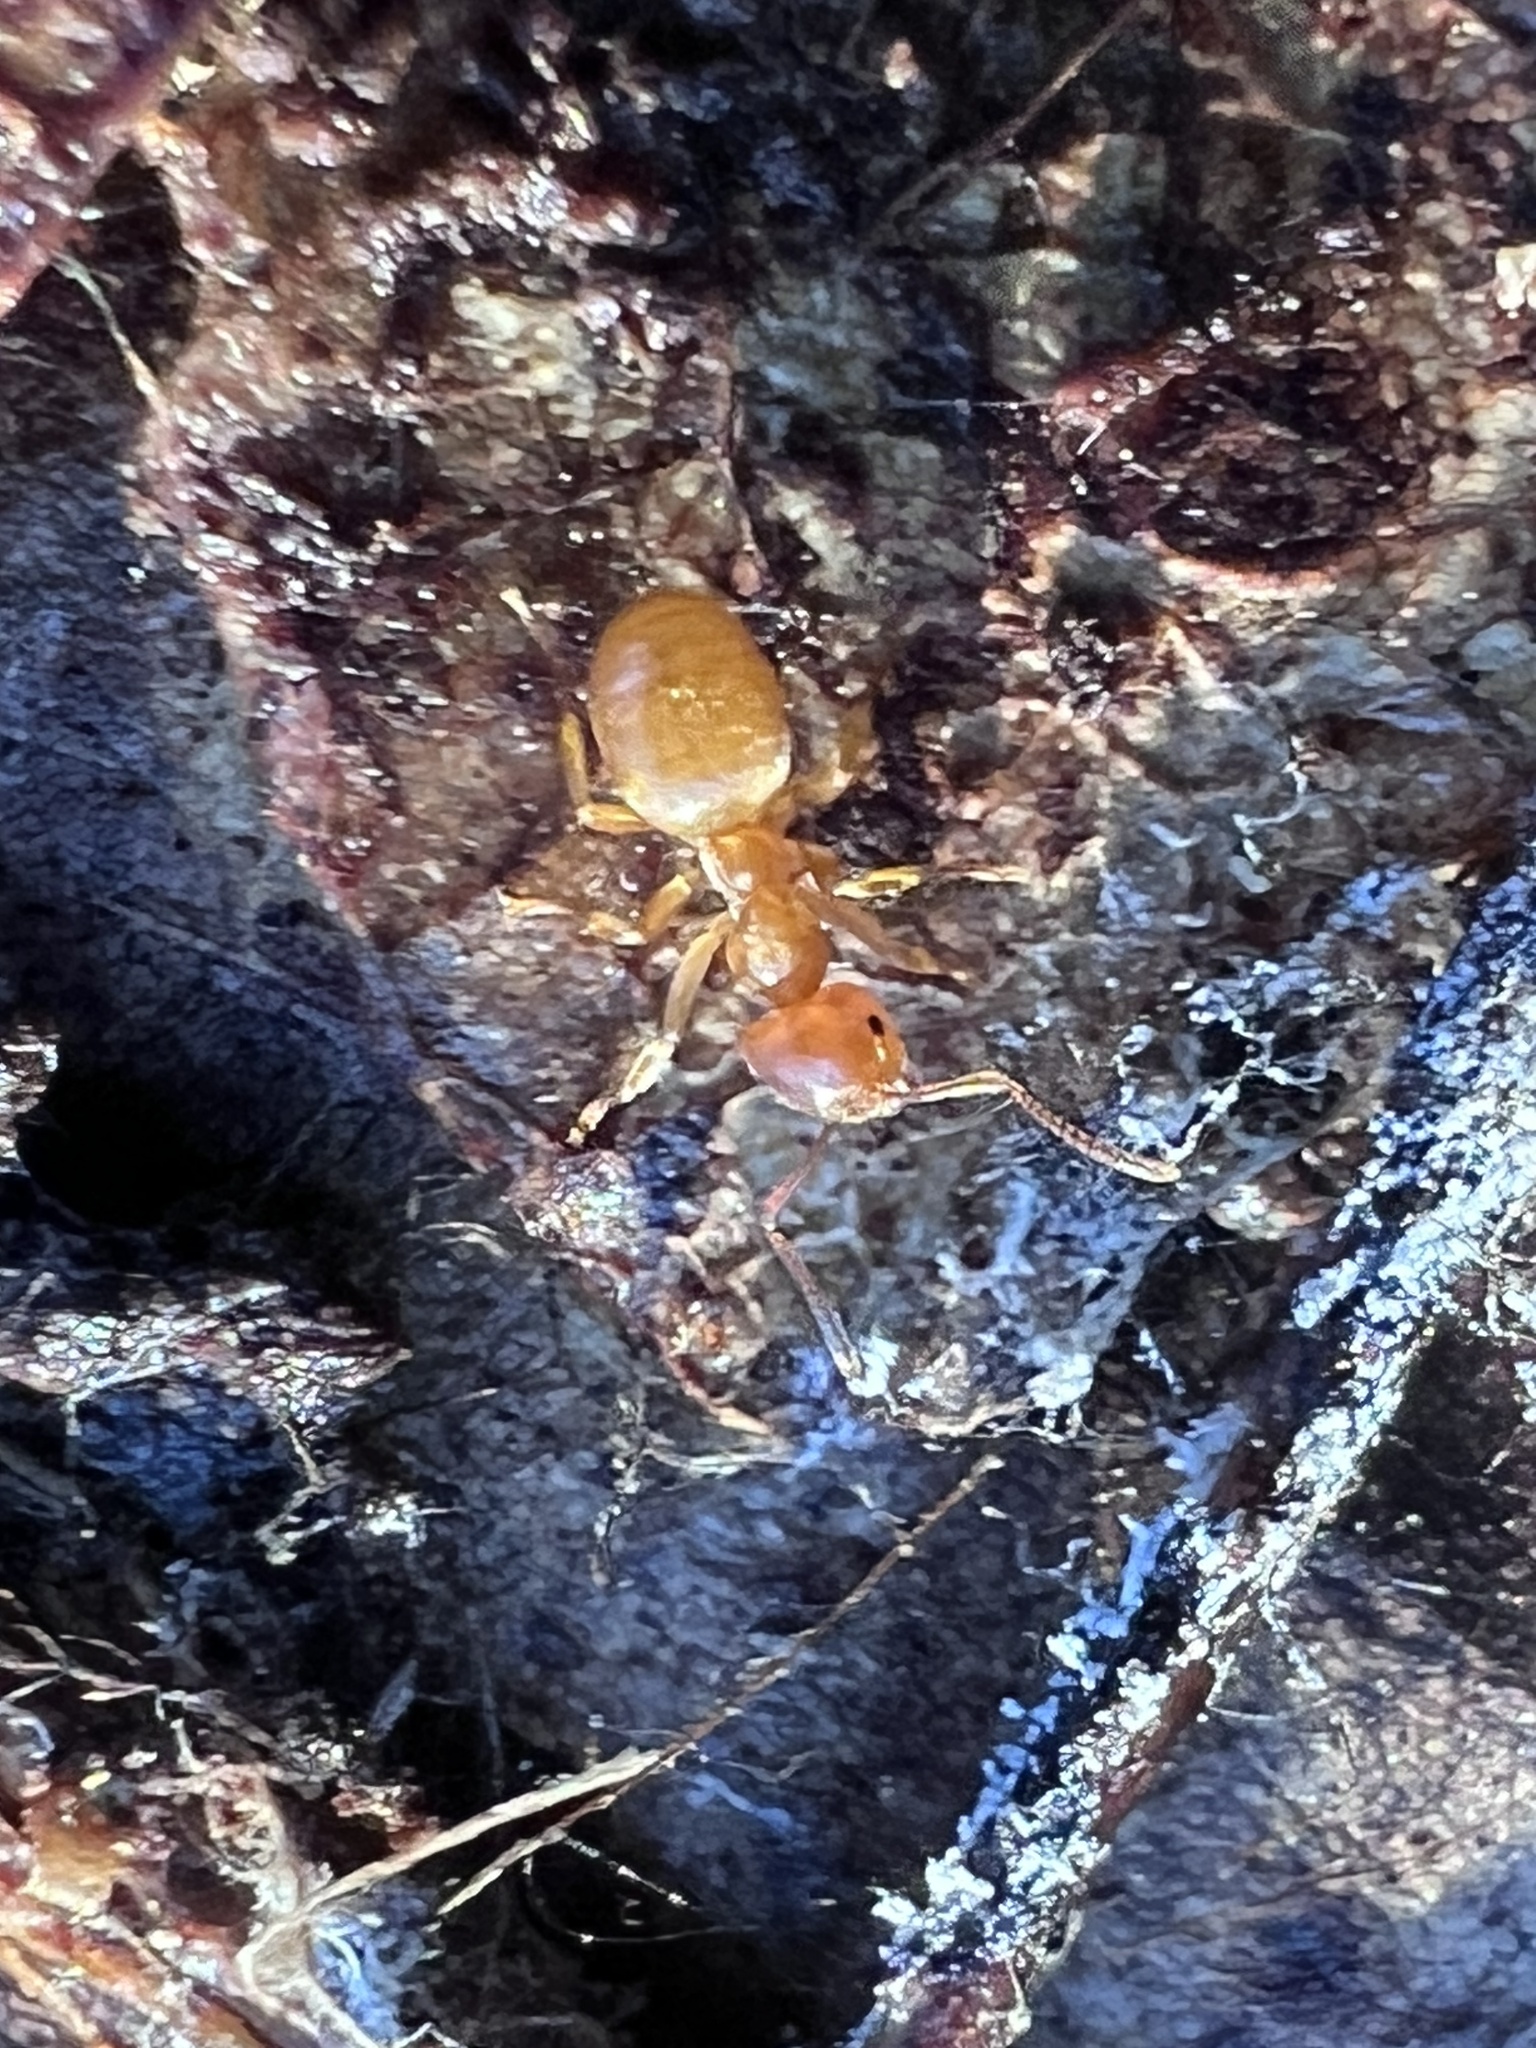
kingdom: Animalia
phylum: Arthropoda
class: Insecta
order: Hymenoptera
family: Formicidae
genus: Lasius
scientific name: Lasius aphidicola
